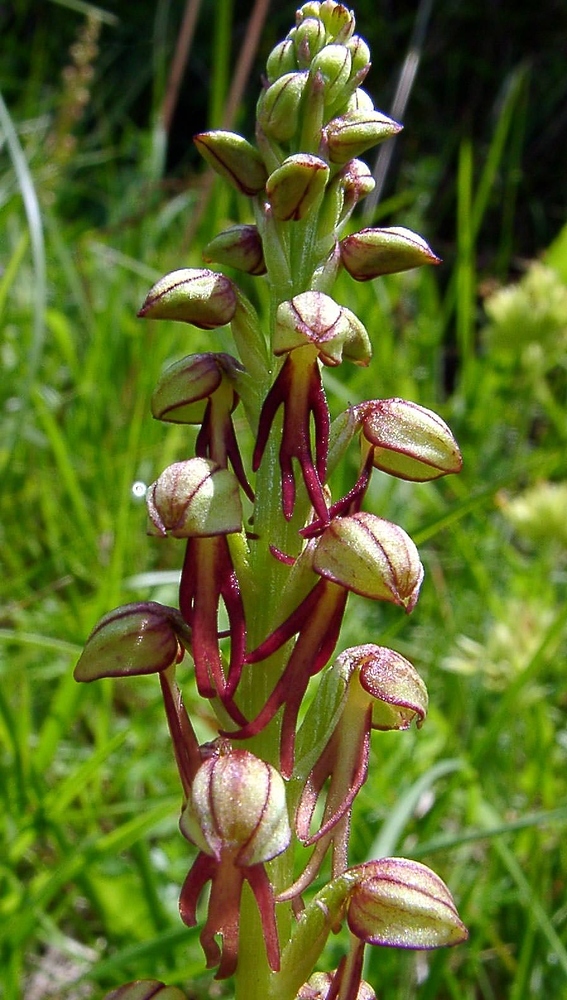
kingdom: Plantae
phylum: Tracheophyta
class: Liliopsida
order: Asparagales
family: Orchidaceae
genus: Orchis
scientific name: Orchis anthropophora
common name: Man orchid
